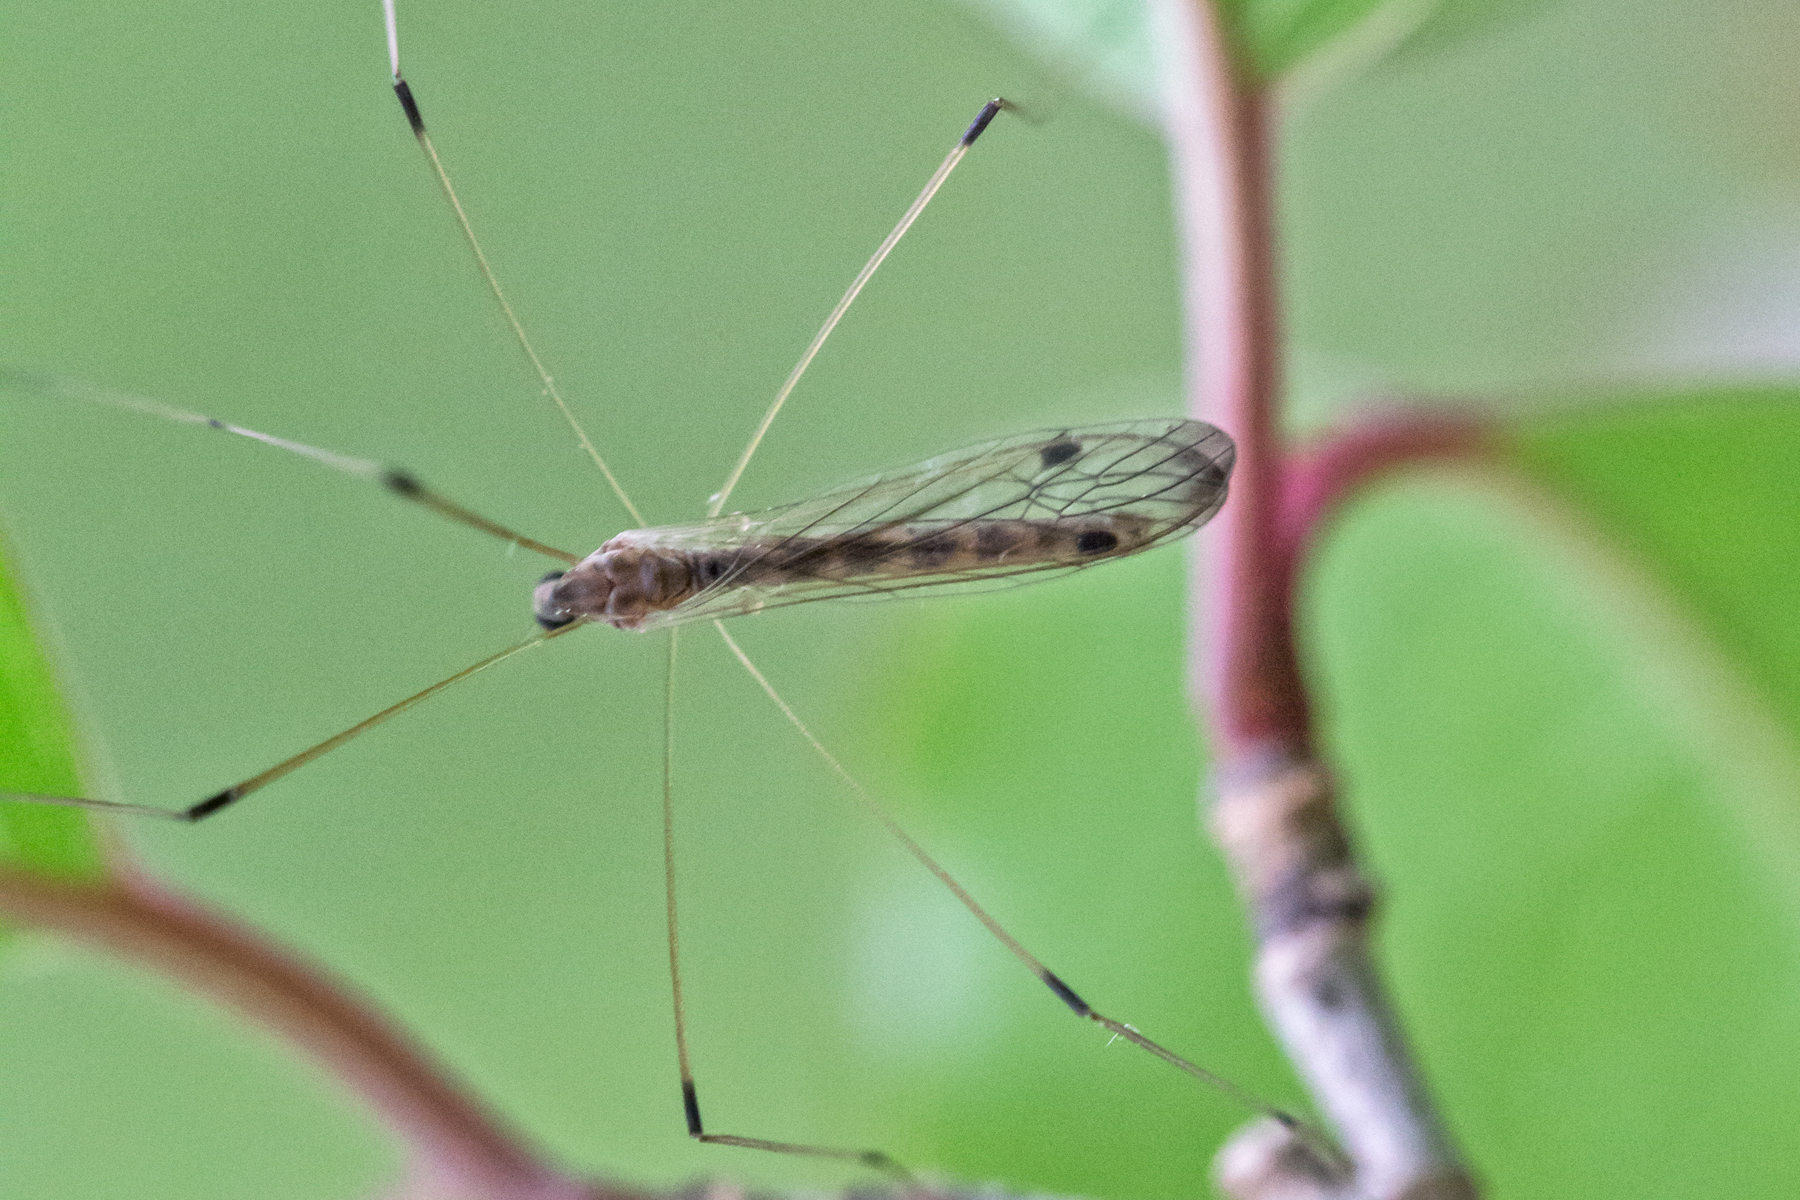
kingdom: Animalia
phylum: Arthropoda
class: Insecta
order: Diptera
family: Limoniidae
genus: Helius
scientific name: Helius flavipes
